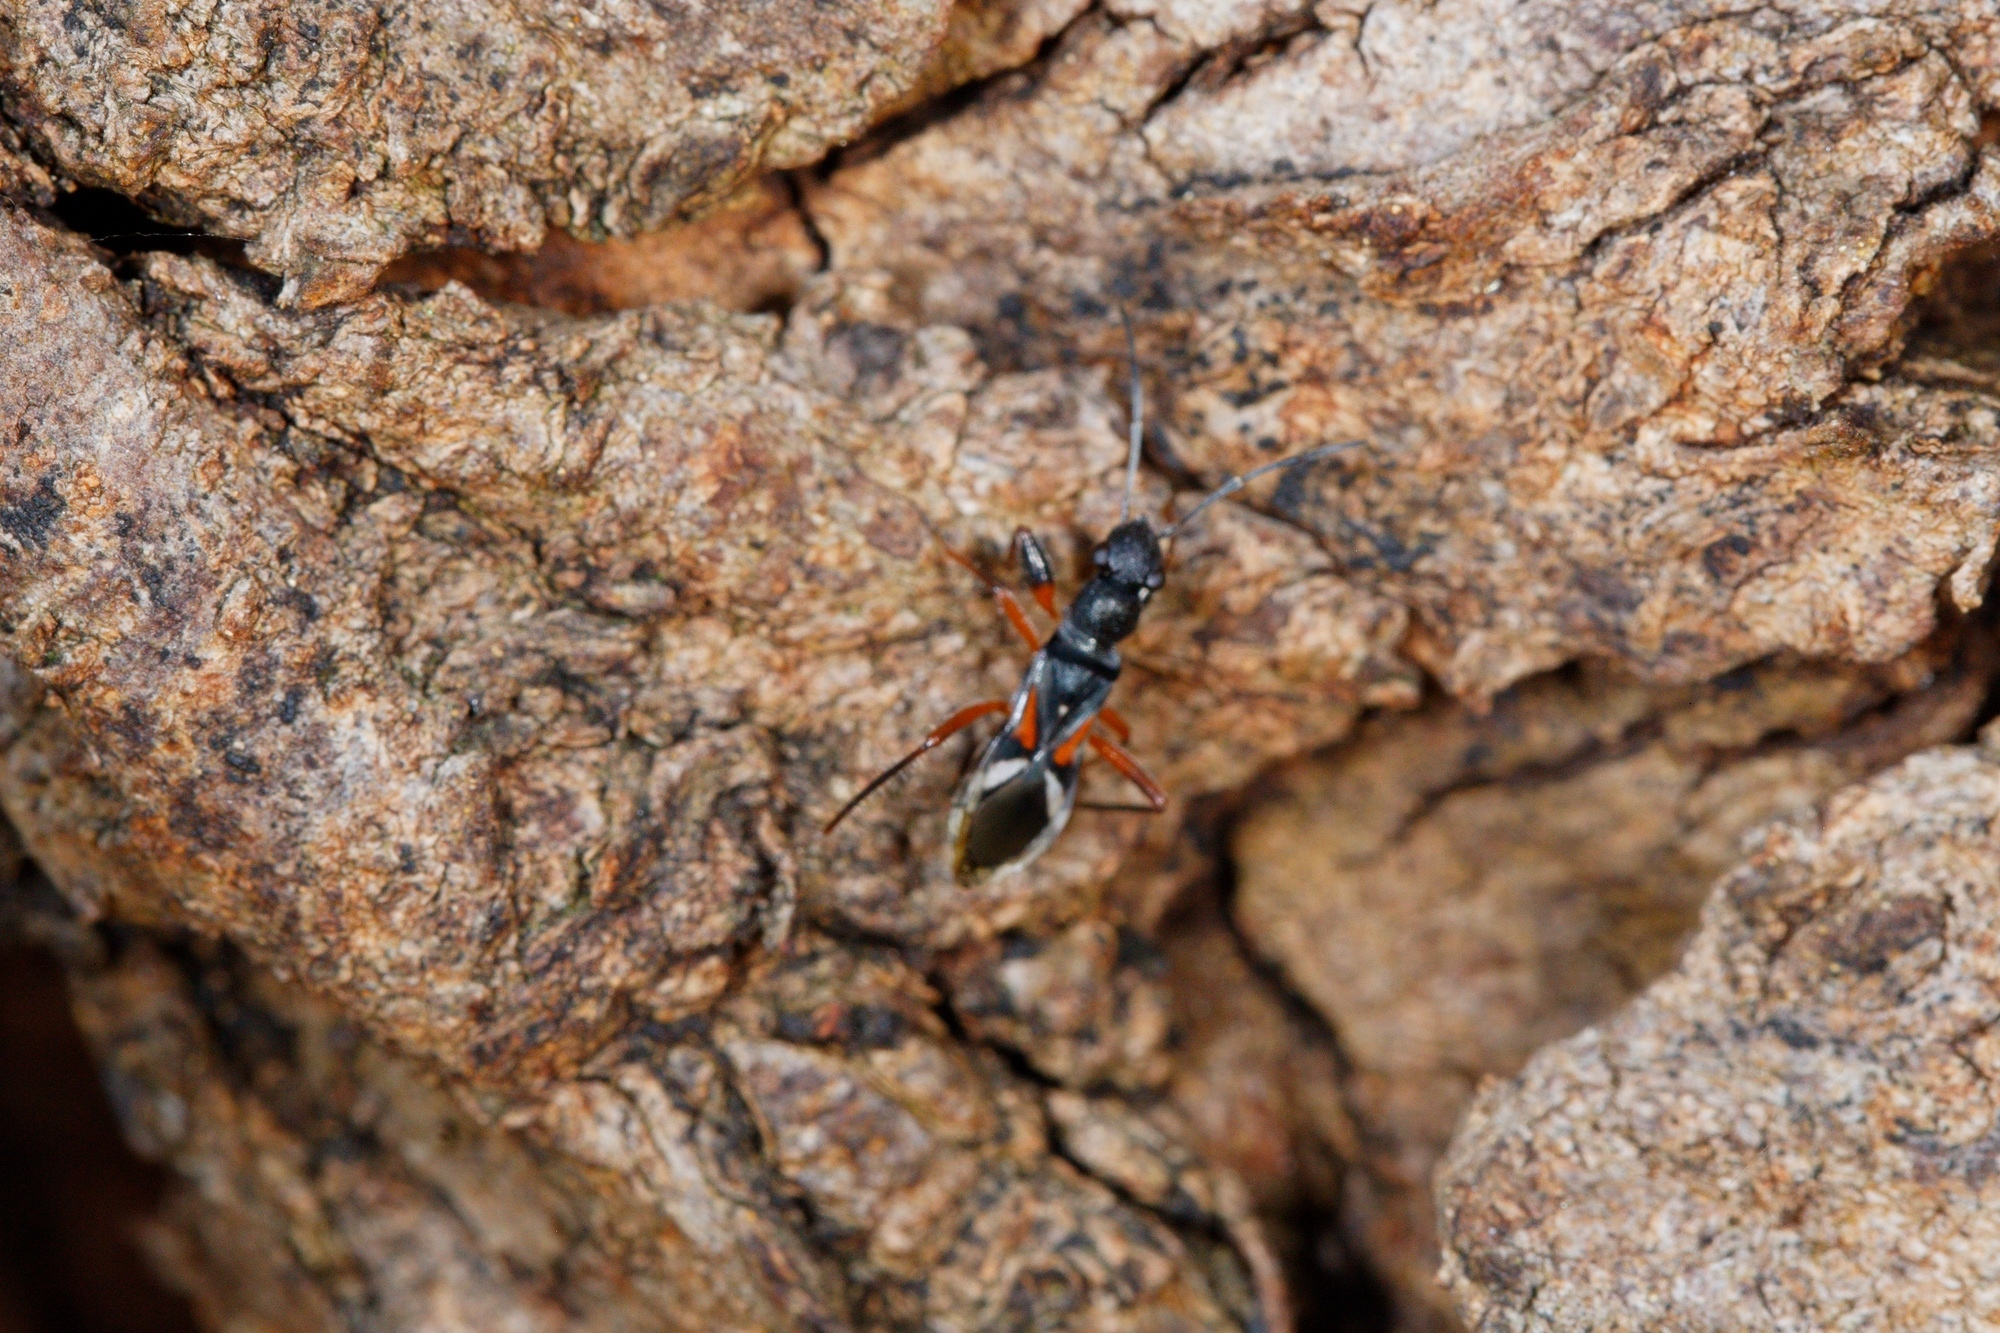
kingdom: Animalia
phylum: Arthropoda
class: Insecta
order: Hemiptera
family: Rhyparochromidae
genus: Daerlac
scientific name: Daerlac cephalotes
